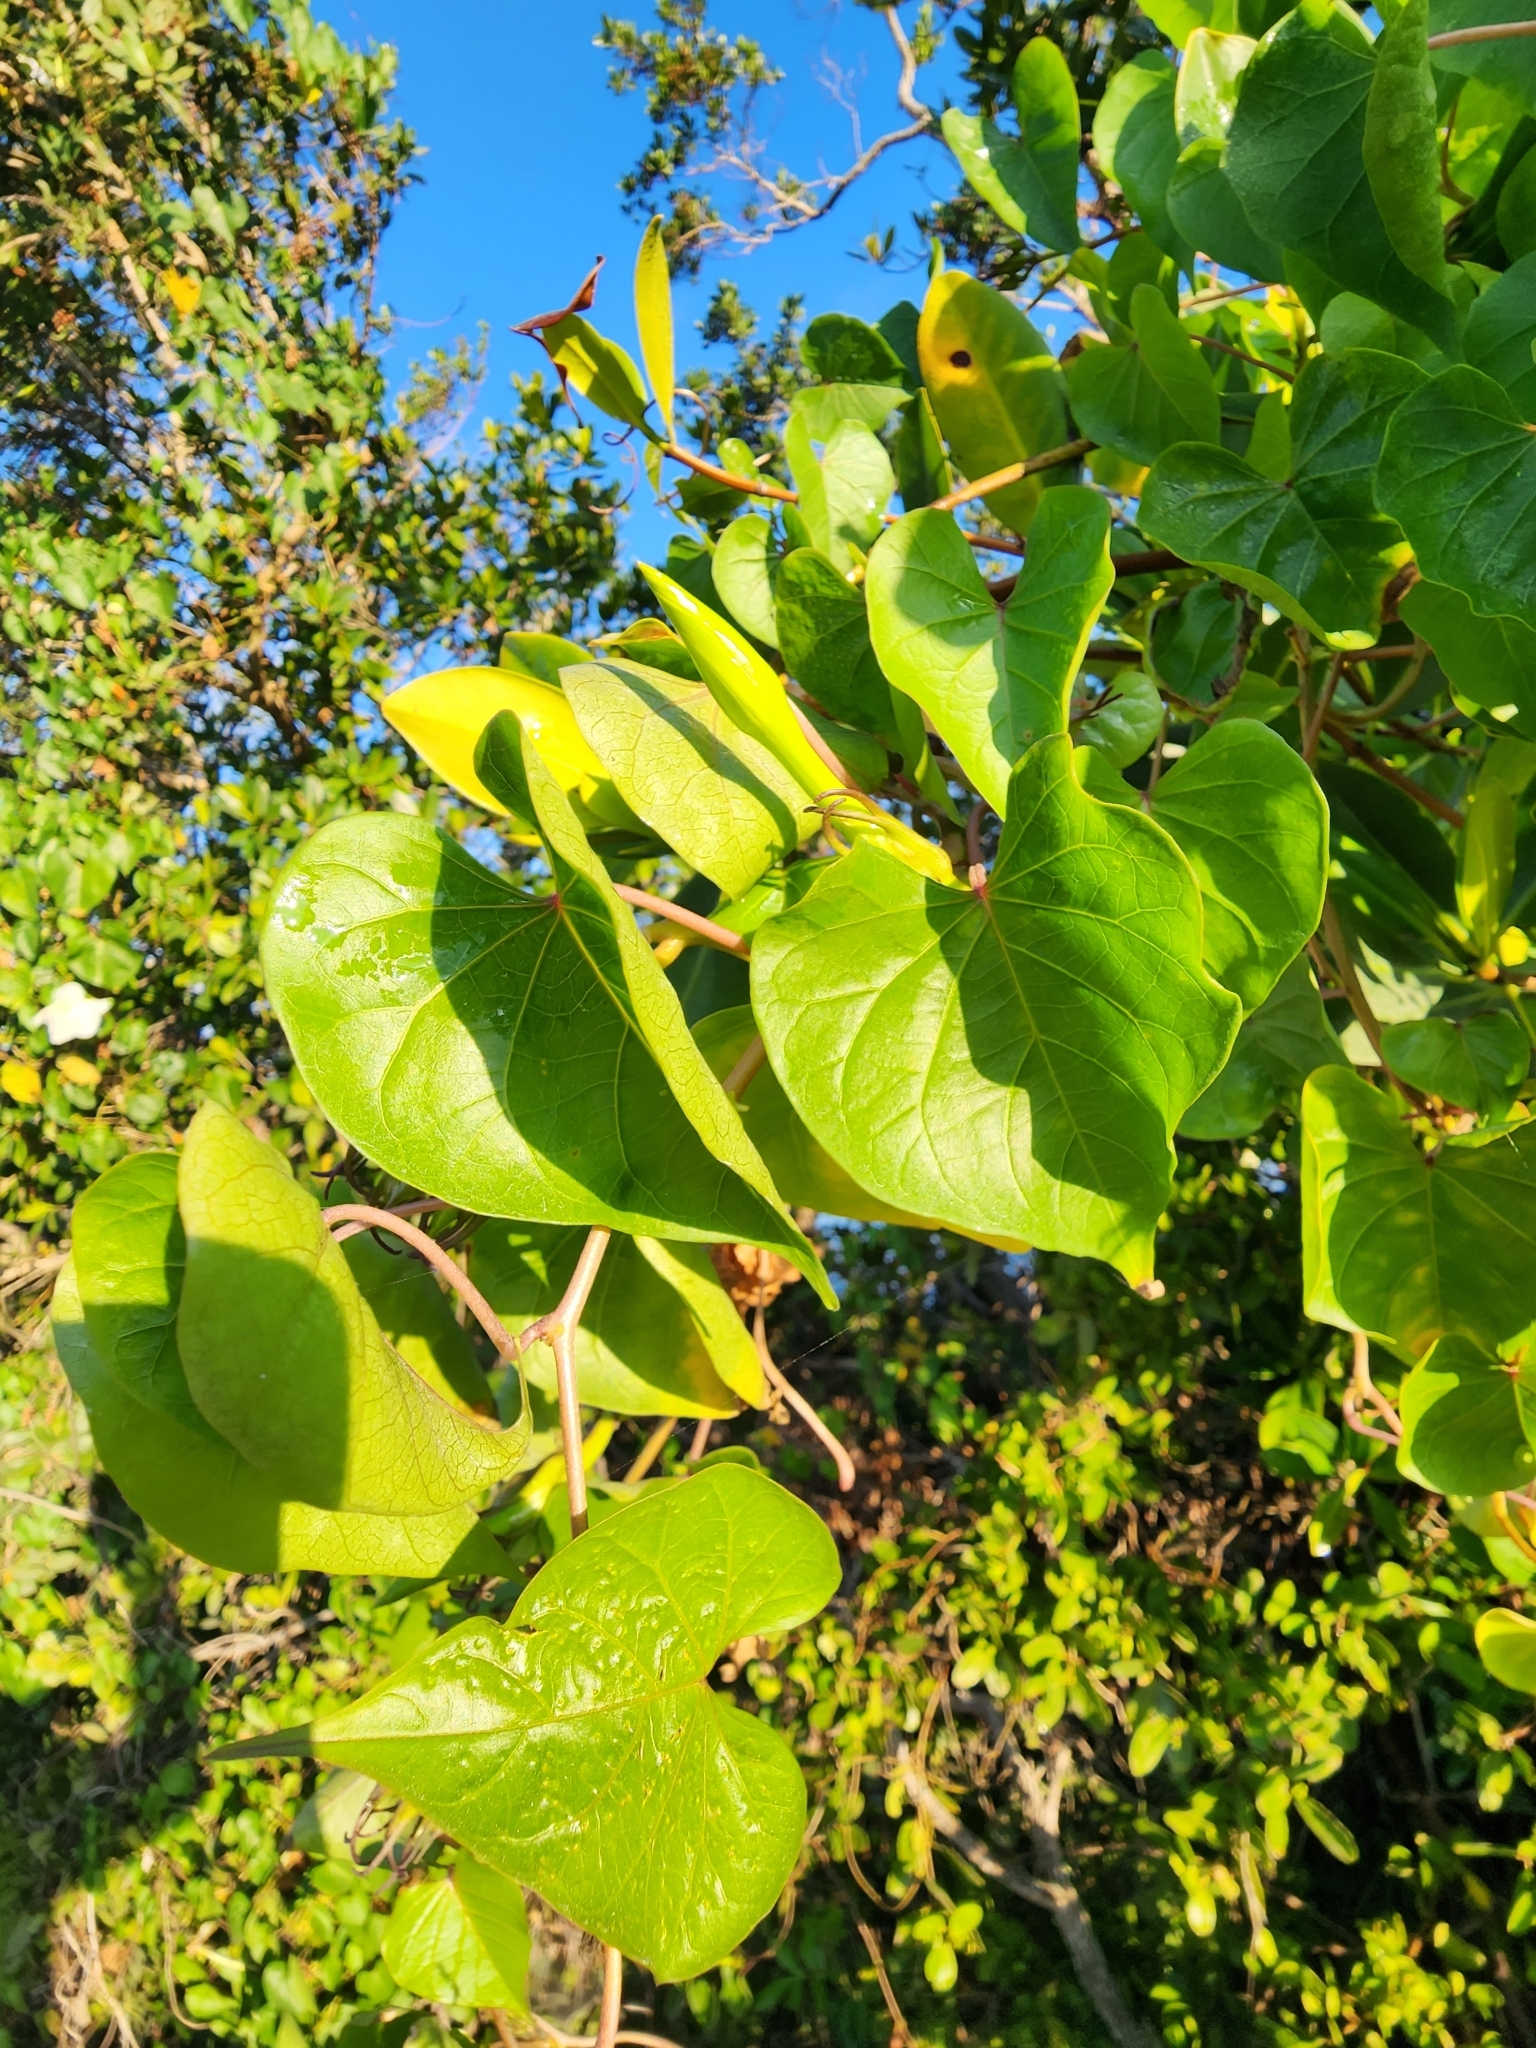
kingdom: Plantae
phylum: Tracheophyta
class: Magnoliopsida
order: Solanales
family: Convolvulaceae
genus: Ipomoea
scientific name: Ipomoea alba
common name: Moonflower
